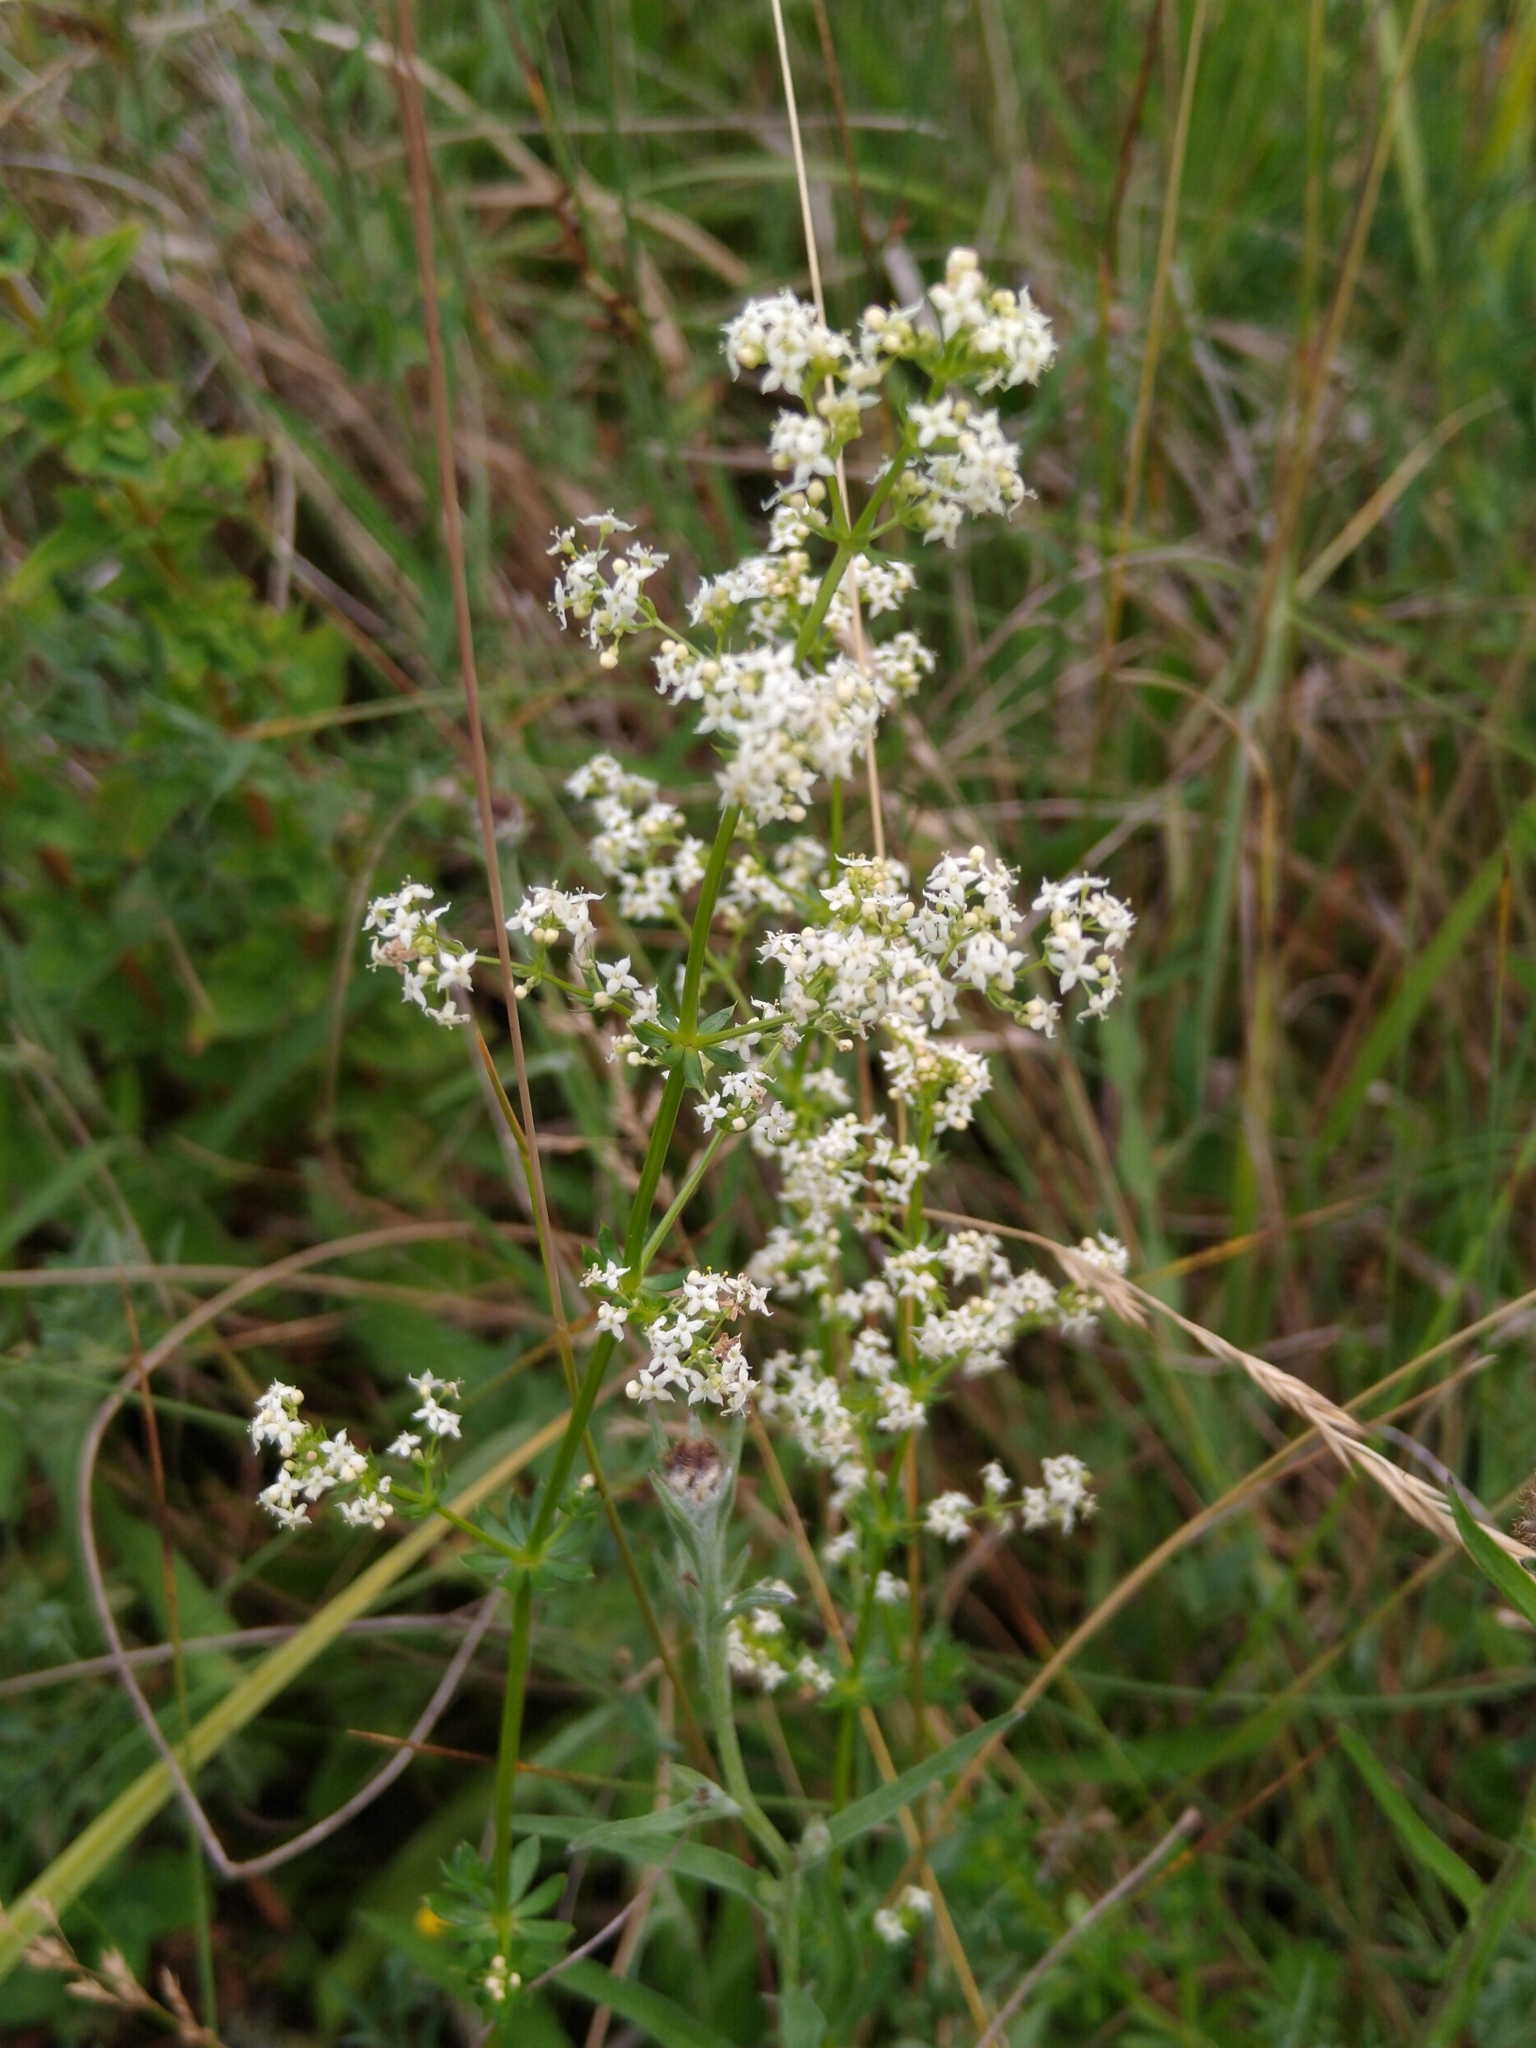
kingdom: Plantae
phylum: Tracheophyta
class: Magnoliopsida
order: Gentianales
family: Rubiaceae
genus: Galium
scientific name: Galium mollugo
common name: Hedge bedstraw
